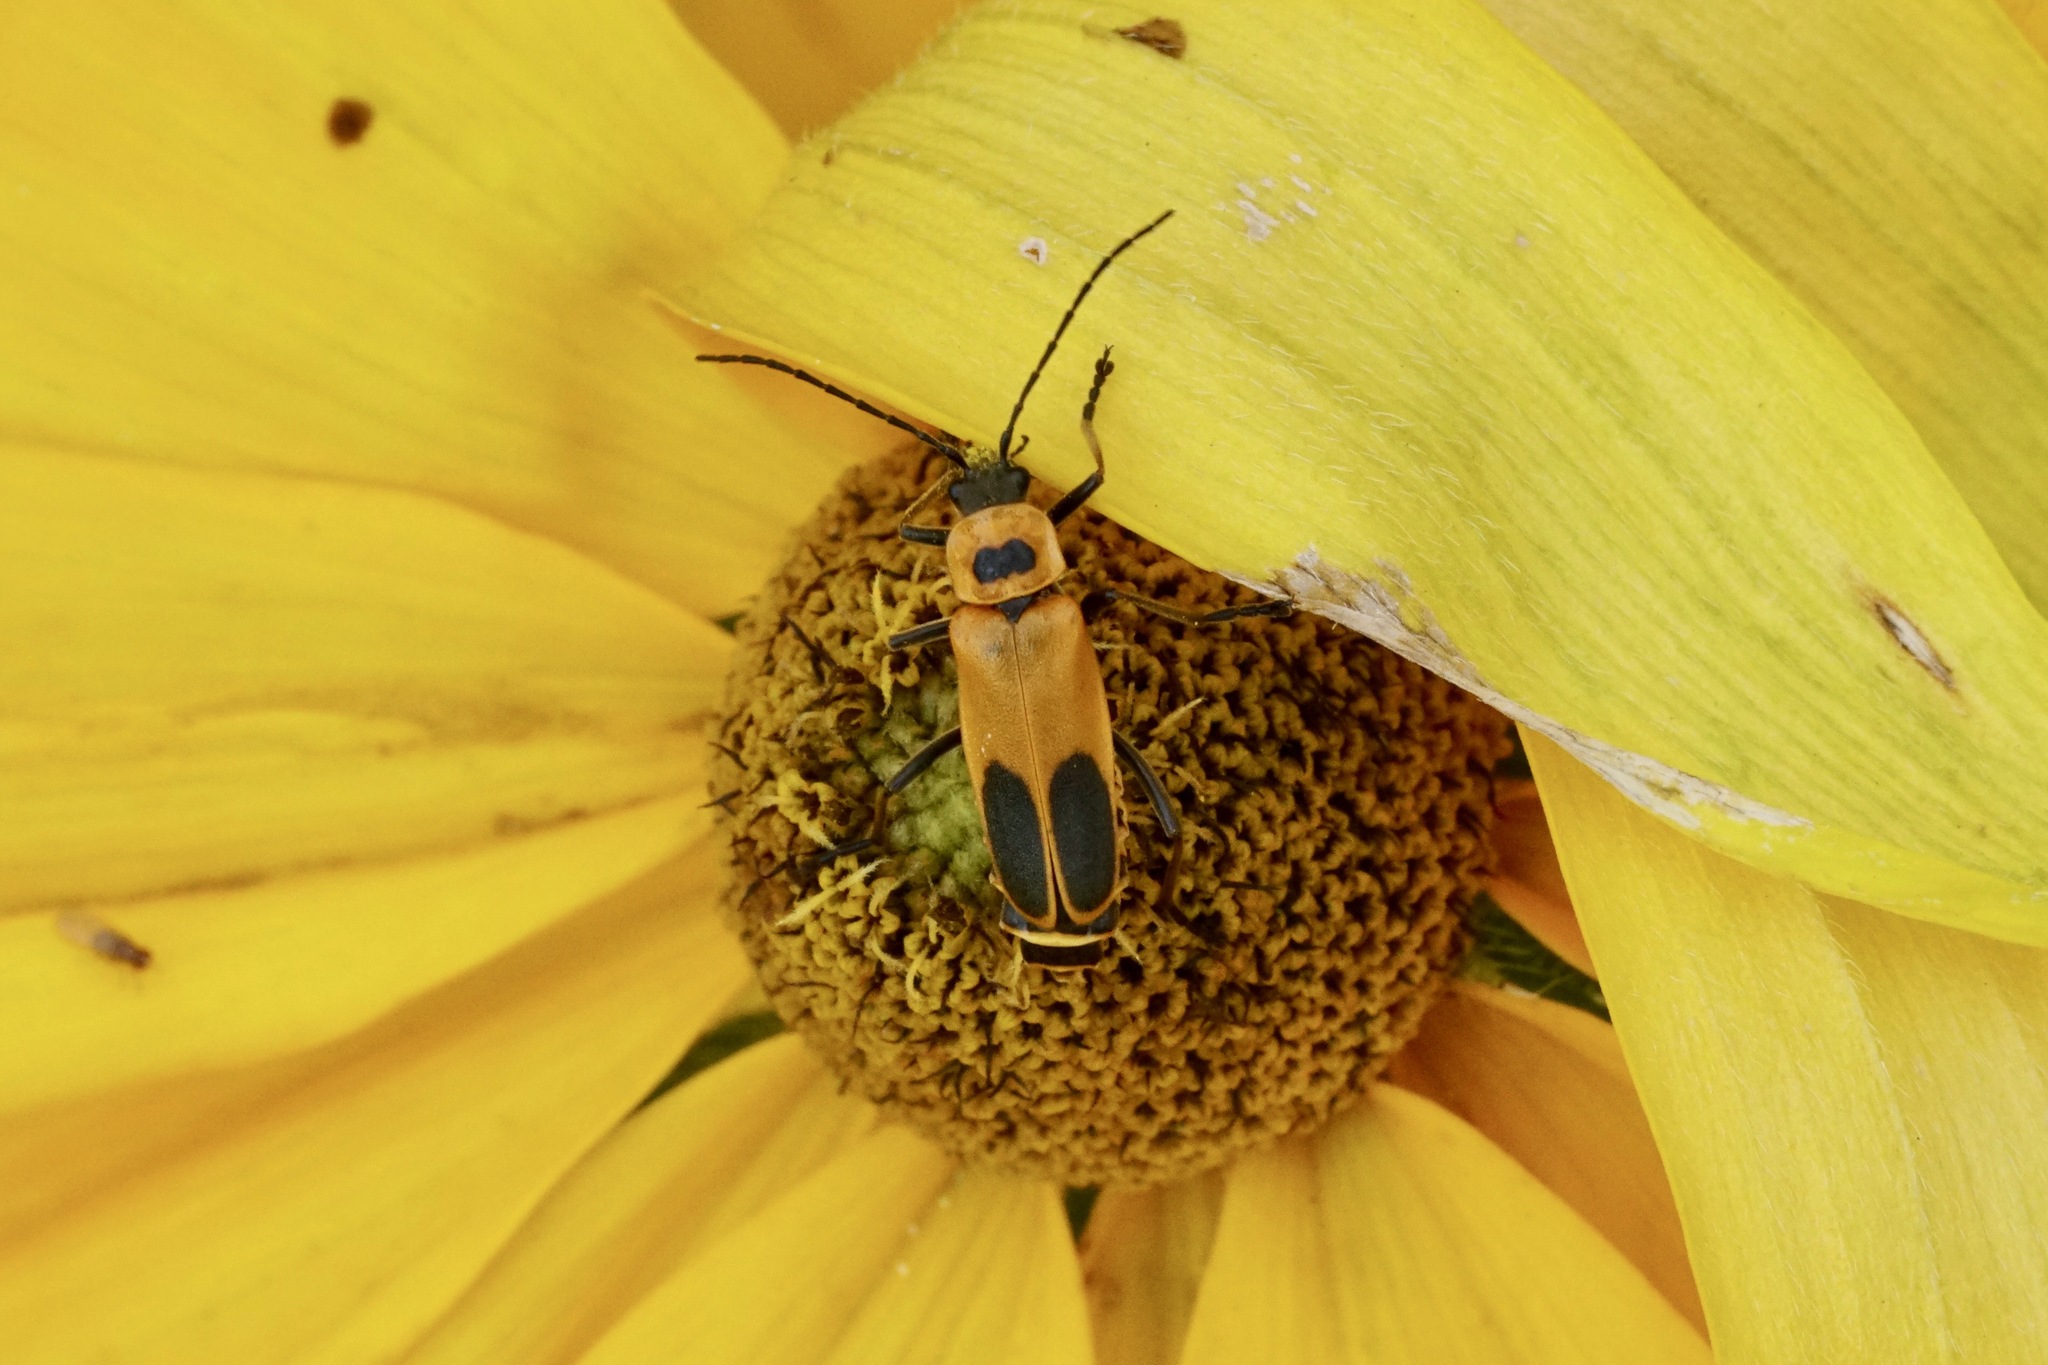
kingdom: Animalia
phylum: Arthropoda
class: Insecta
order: Coleoptera
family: Cantharidae
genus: Chauliognathus
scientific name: Chauliognathus pensylvanicus
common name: Goldenrod soldier beetle
